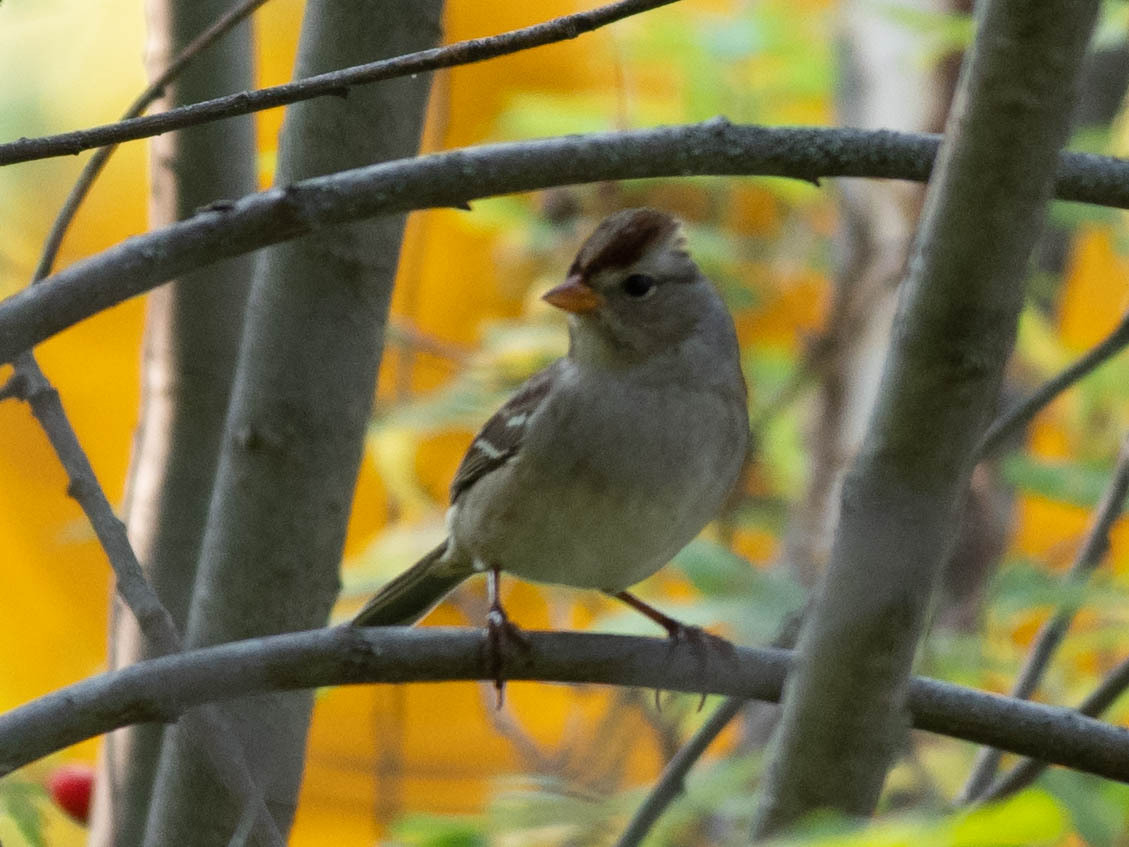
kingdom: Animalia
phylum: Chordata
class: Aves
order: Passeriformes
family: Passerellidae
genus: Zonotrichia
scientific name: Zonotrichia leucophrys
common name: White-crowned sparrow
